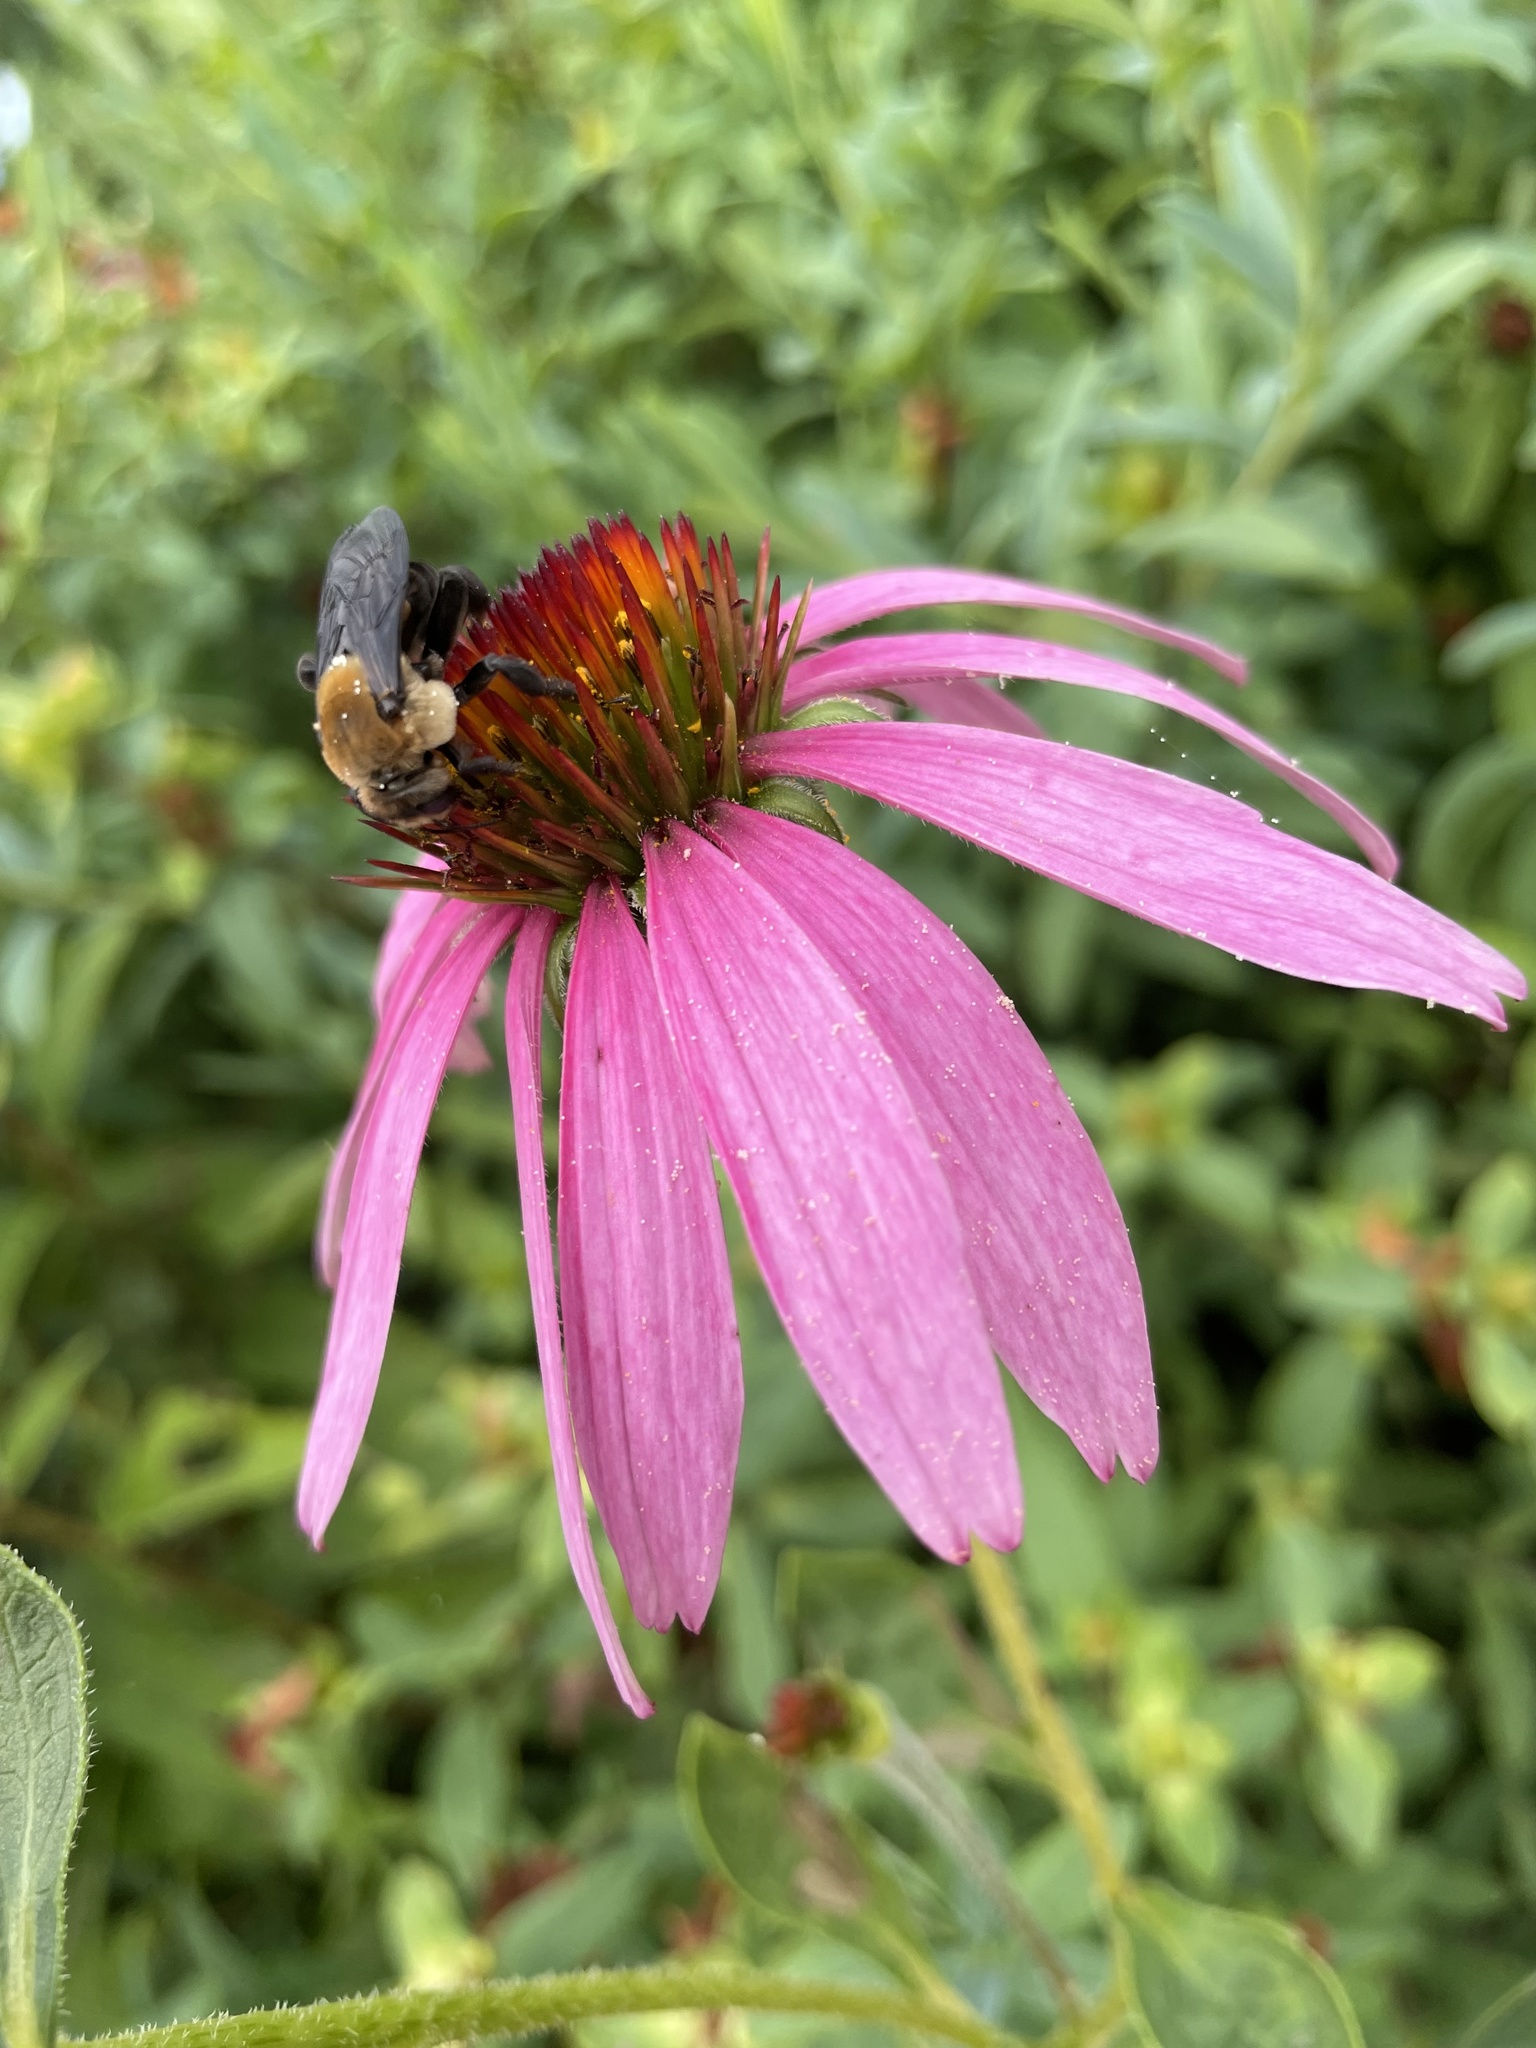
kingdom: Animalia
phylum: Arthropoda
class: Insecta
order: Hymenoptera
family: Apidae
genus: Ptilothrix
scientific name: Ptilothrix bombiformis
